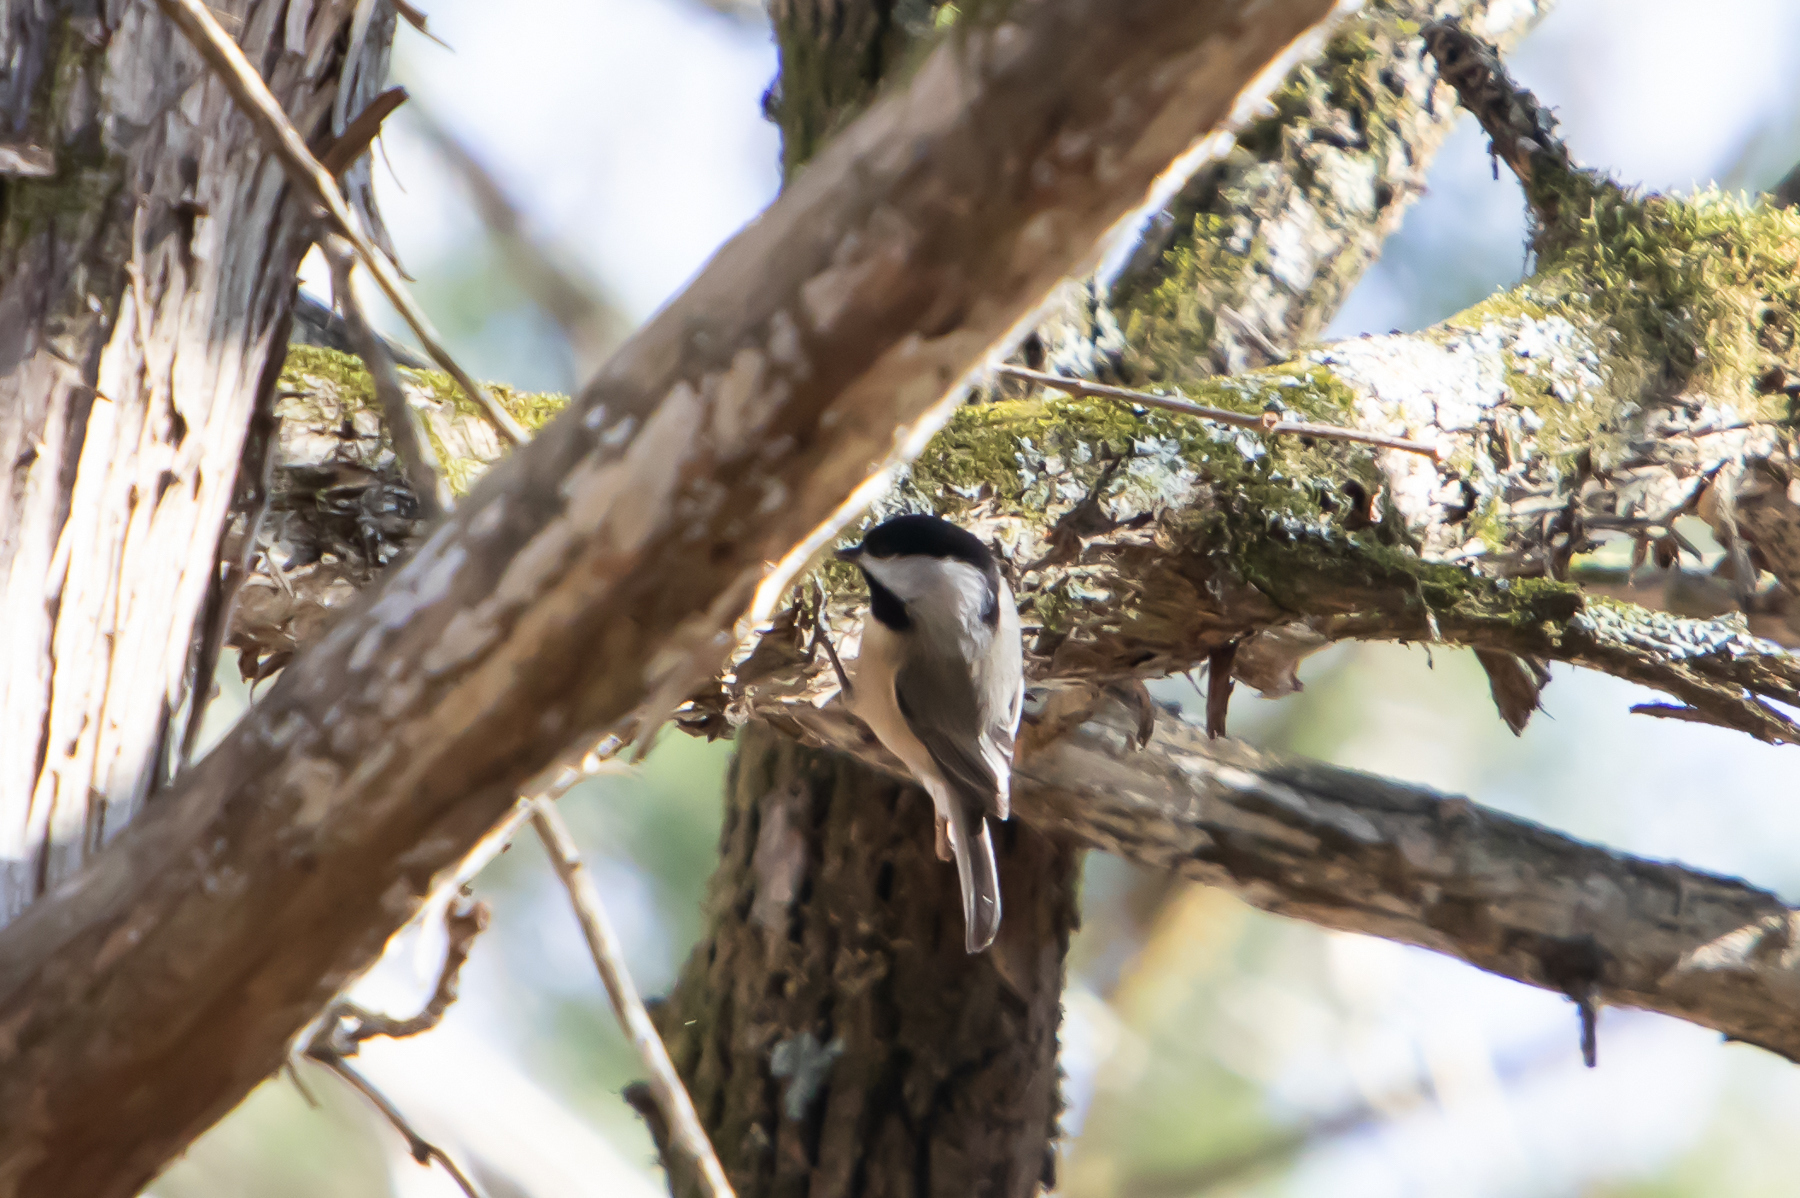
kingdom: Animalia
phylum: Chordata
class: Aves
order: Passeriformes
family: Paridae
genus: Poecile
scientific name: Poecile carolinensis
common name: Carolina chickadee
